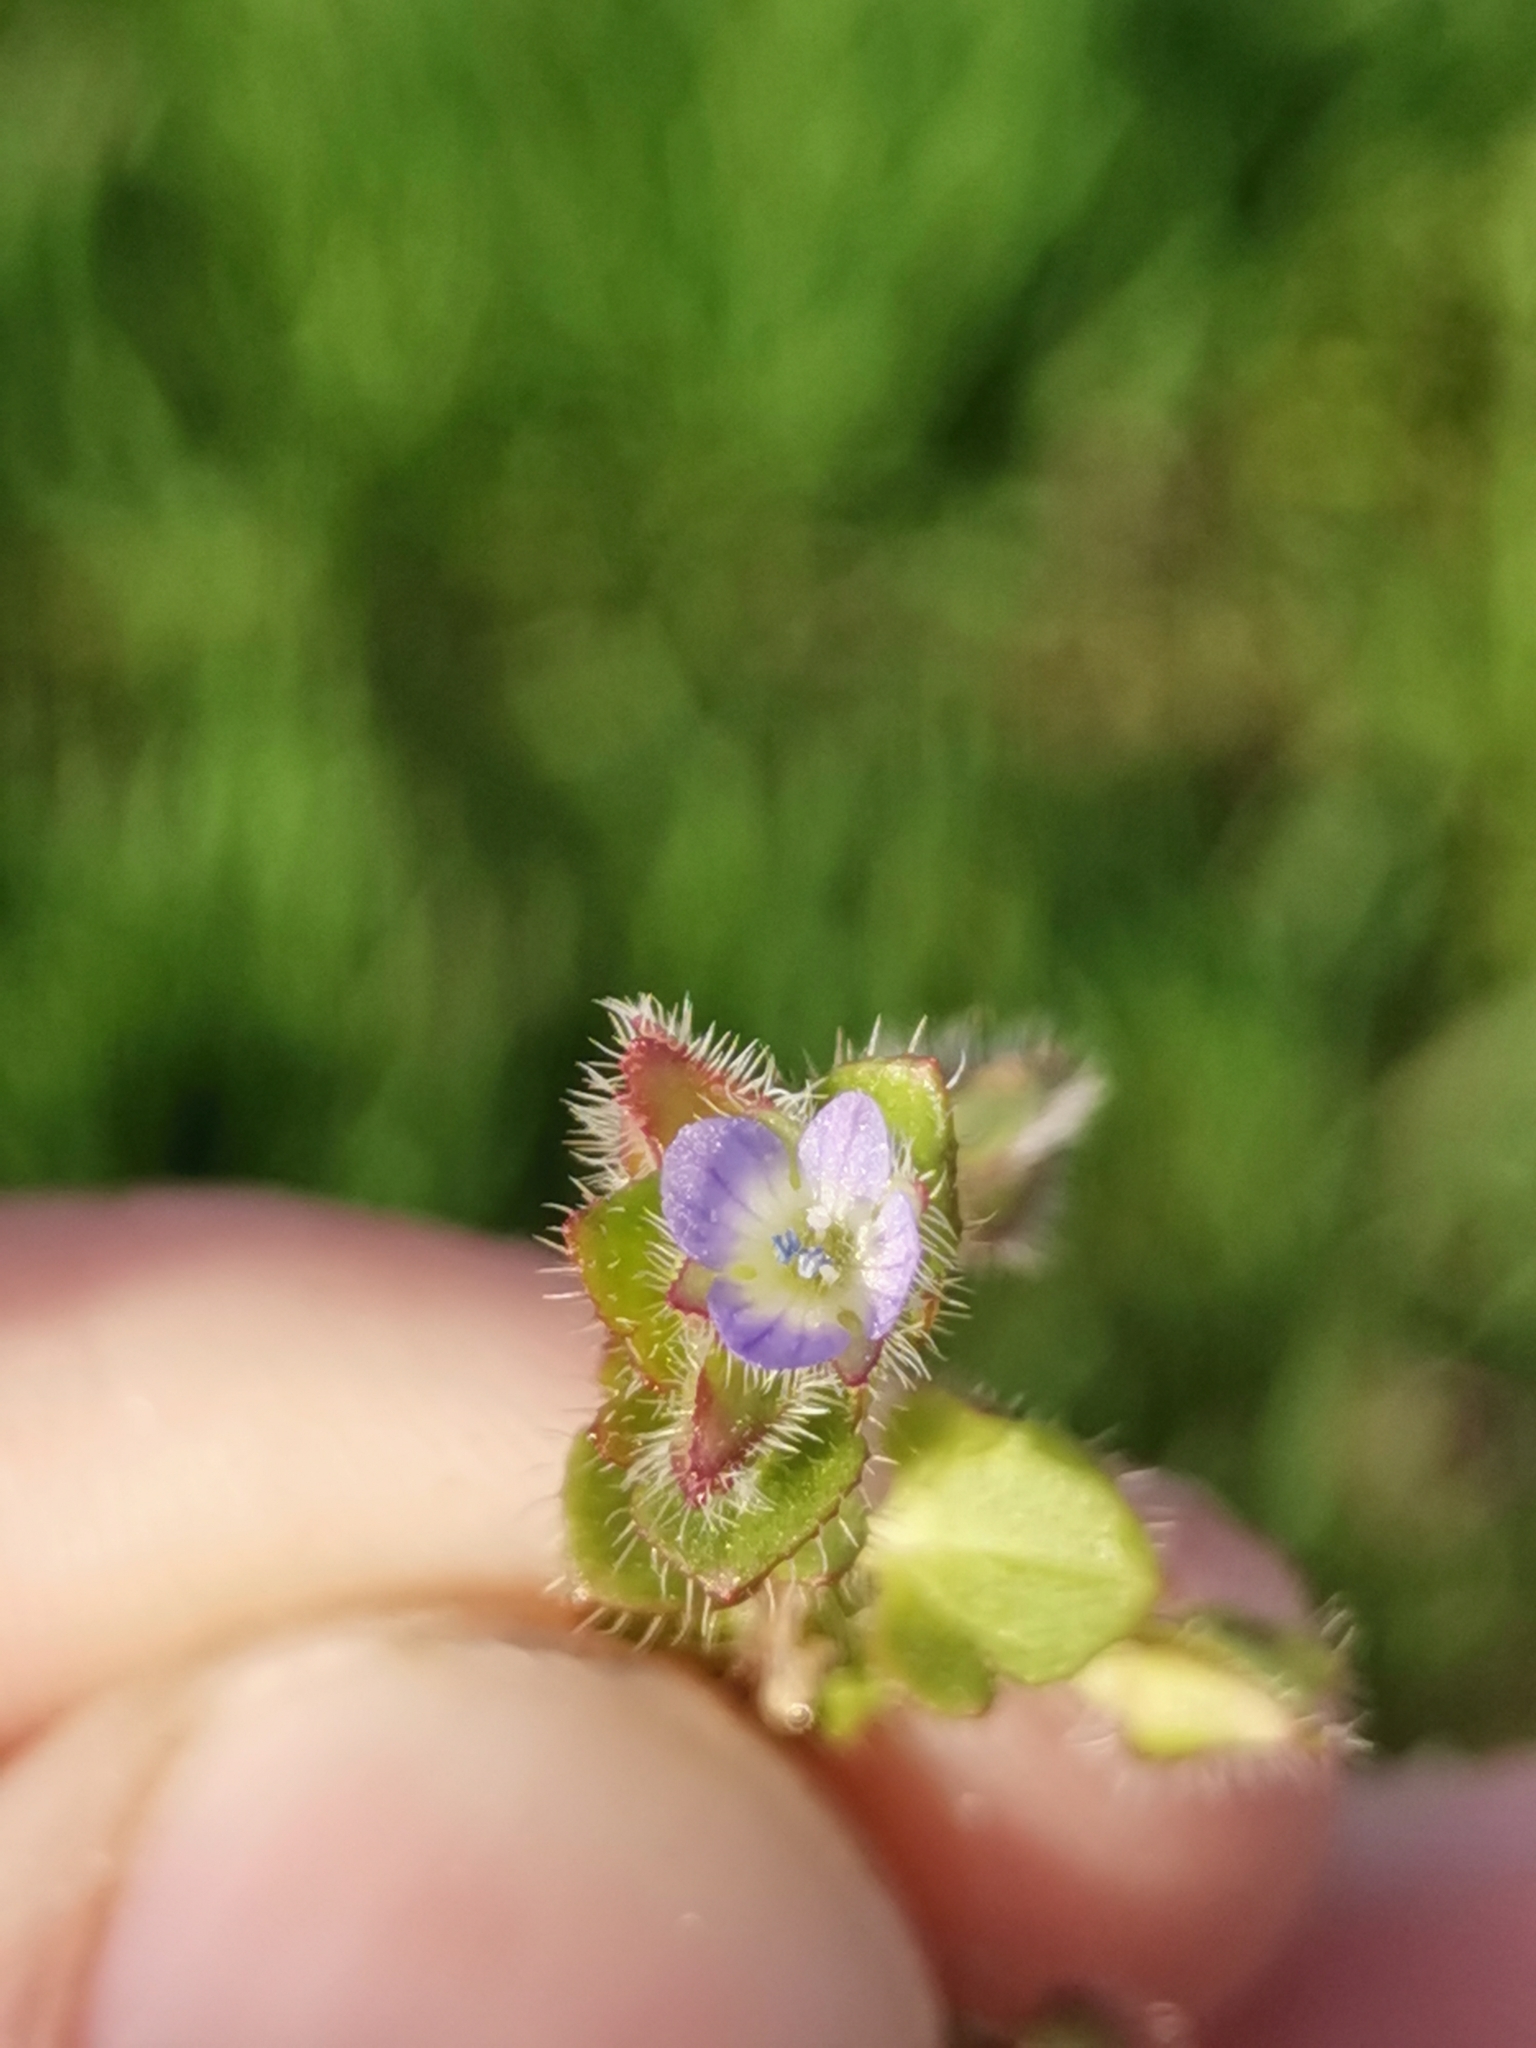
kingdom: Plantae
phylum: Tracheophyta
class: Magnoliopsida
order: Lamiales
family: Plantaginaceae
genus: Veronica
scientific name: Veronica hederifolia
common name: Ivy-leaved speedwell
